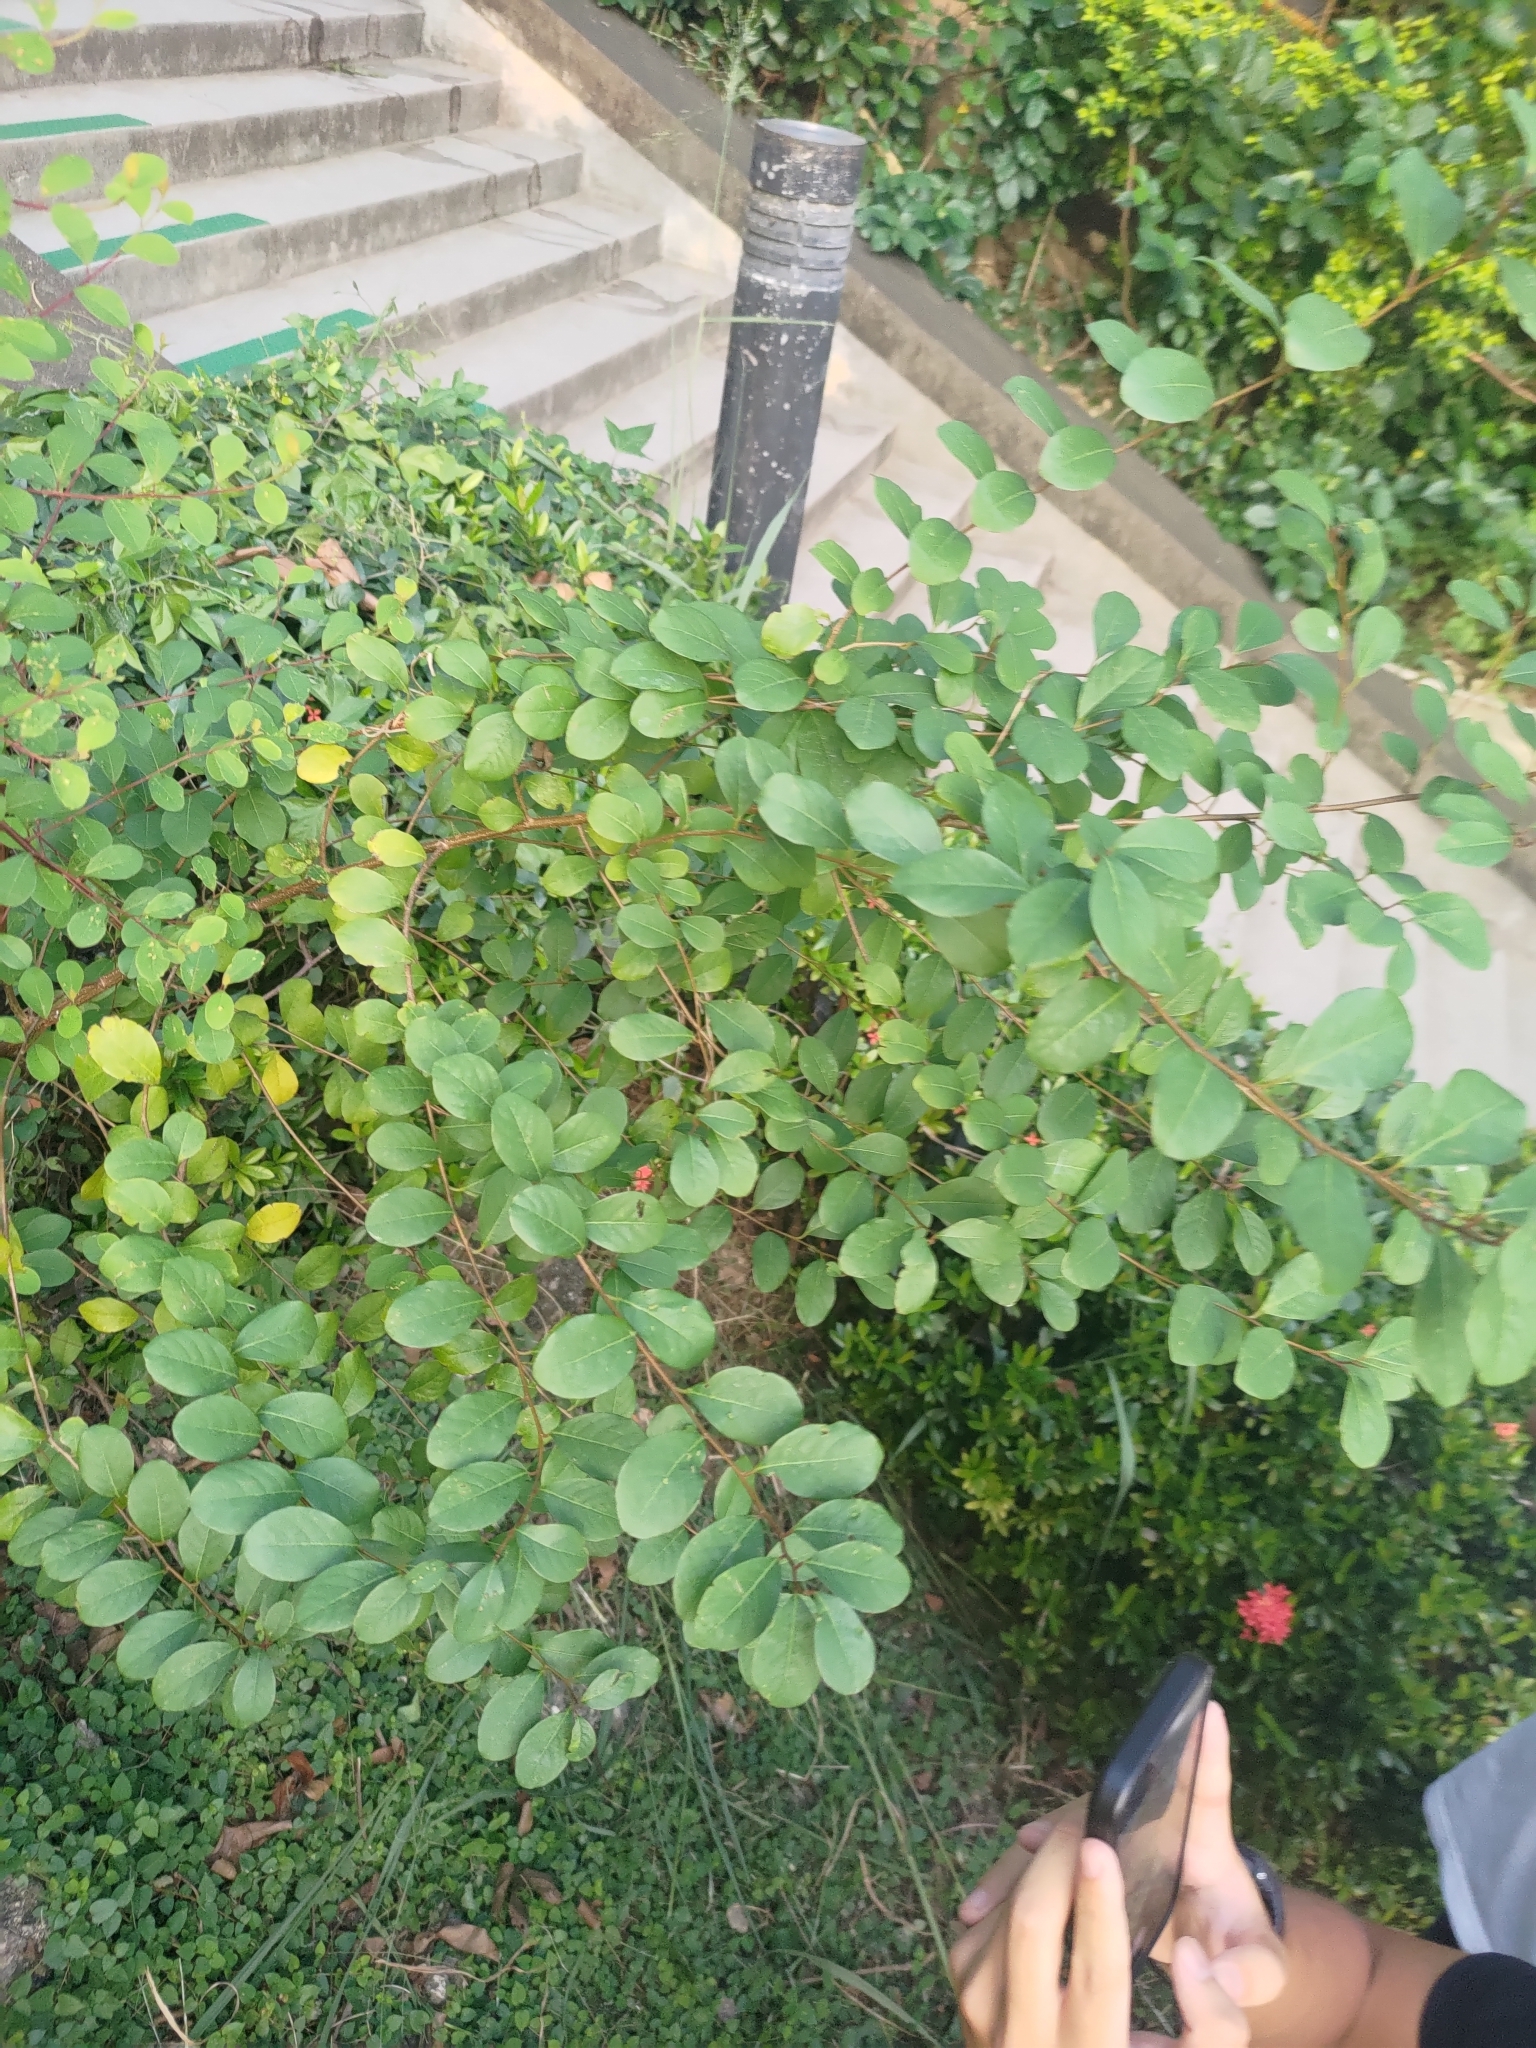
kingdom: Plantae
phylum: Tracheophyta
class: Magnoliopsida
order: Malpighiales
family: Phyllanthaceae
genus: Flueggea
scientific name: Flueggea virosa
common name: Common bushweed
